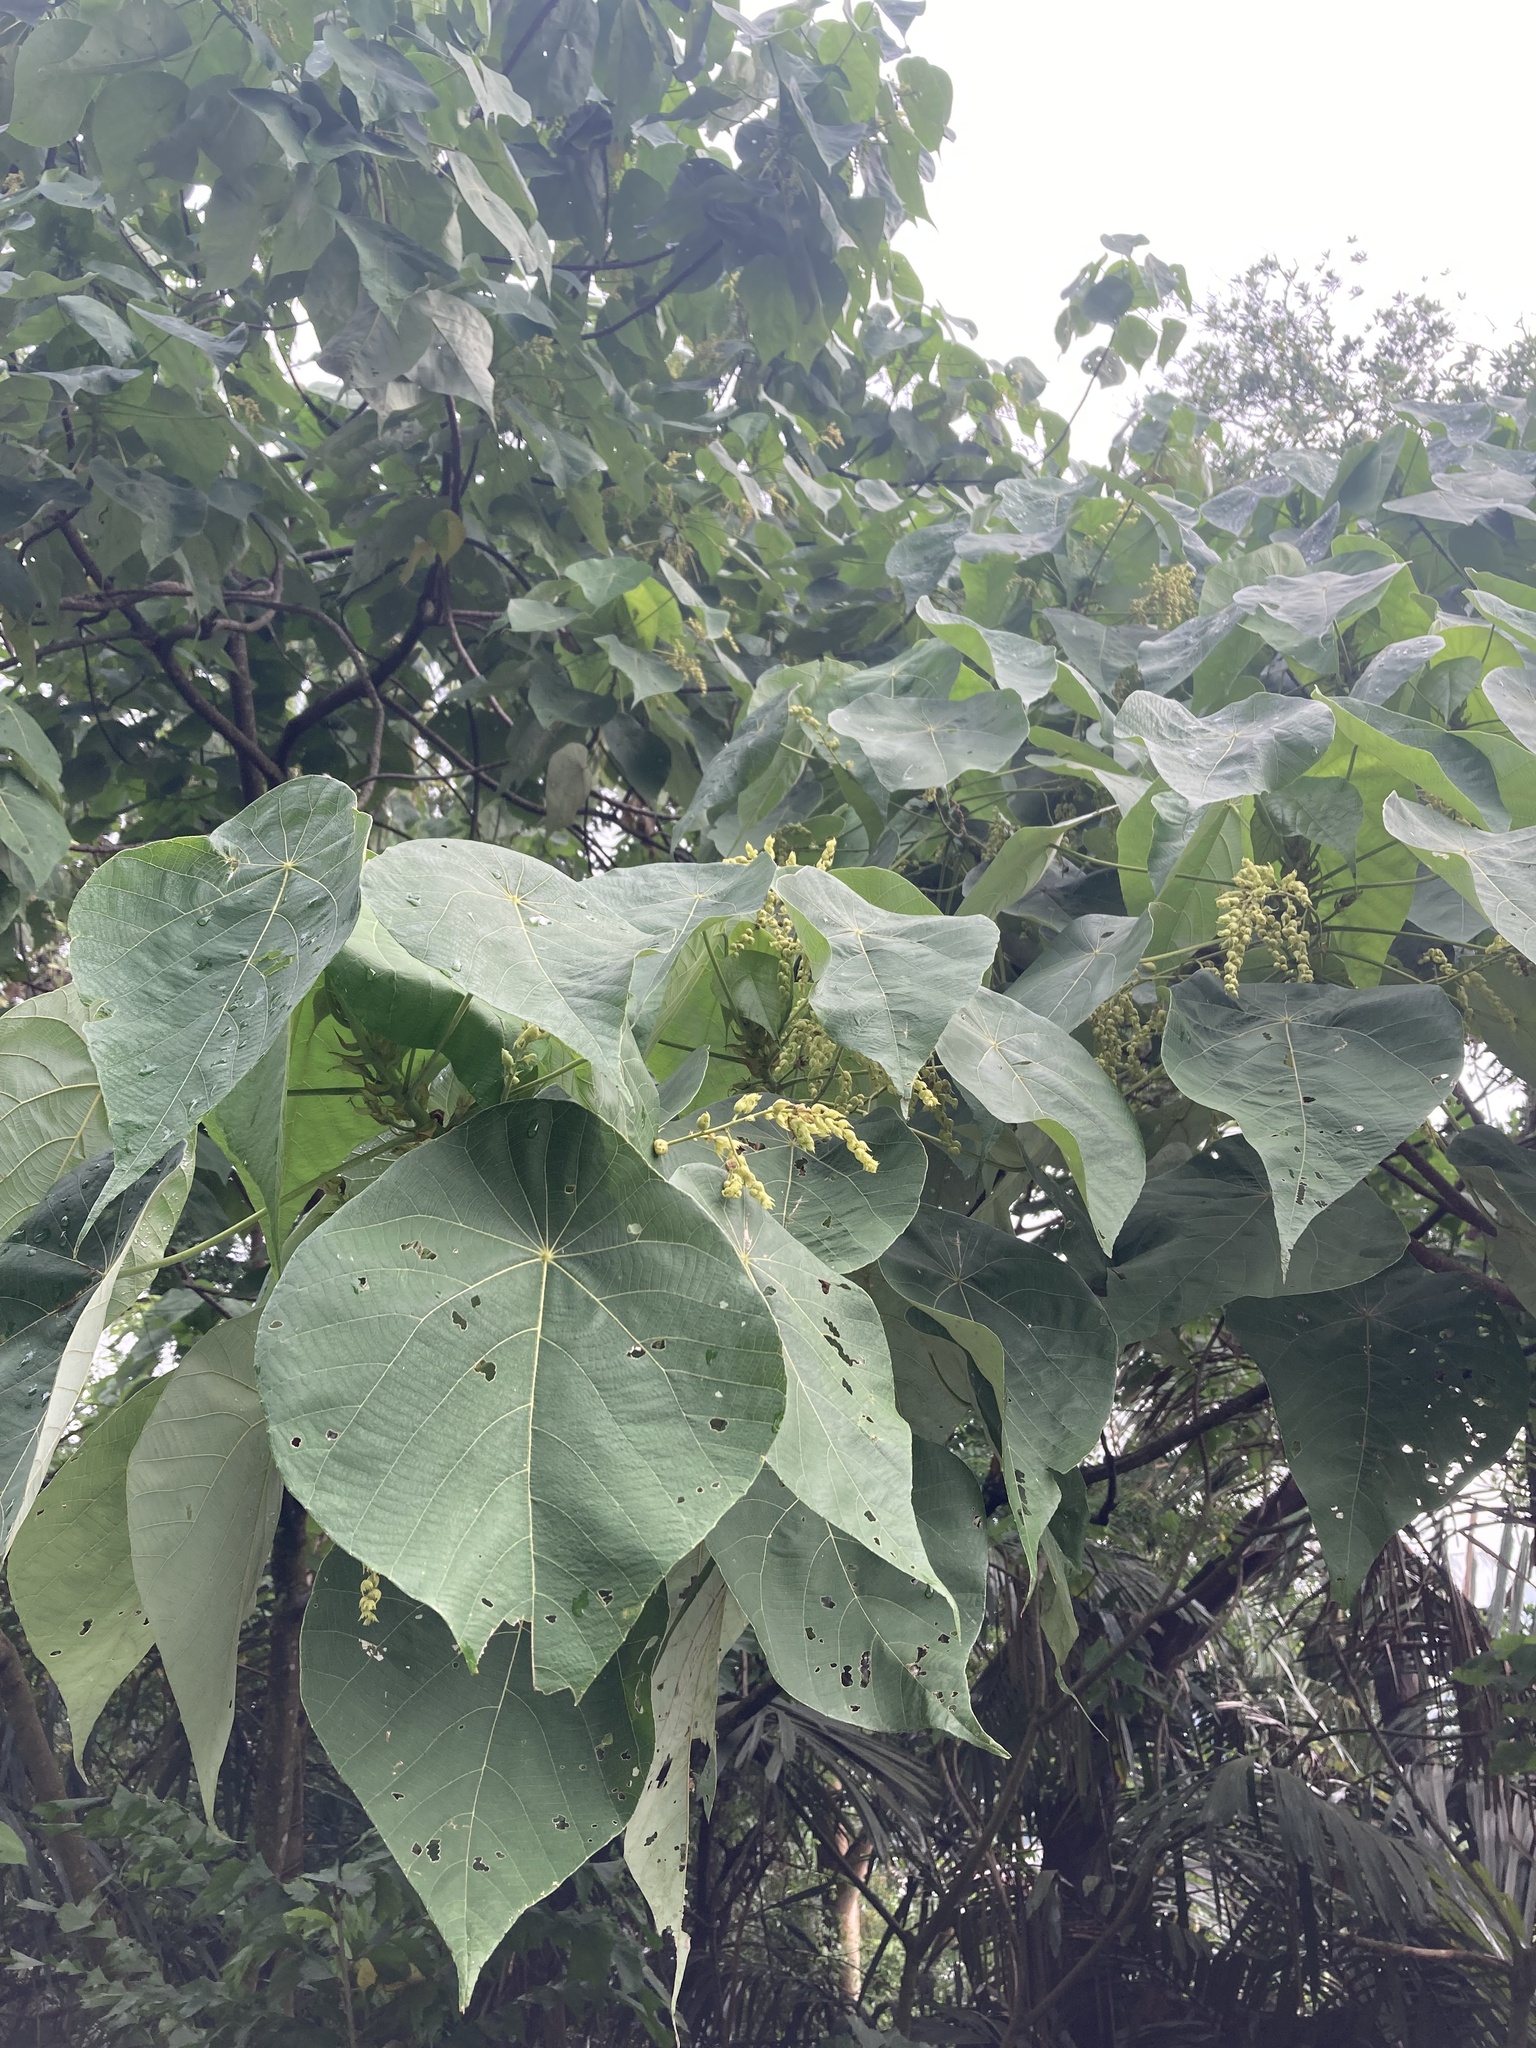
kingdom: Plantae
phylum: Tracheophyta
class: Magnoliopsida
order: Malpighiales
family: Euphorbiaceae
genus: Macaranga
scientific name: Macaranga tanarius
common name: Parasol leaf tree
